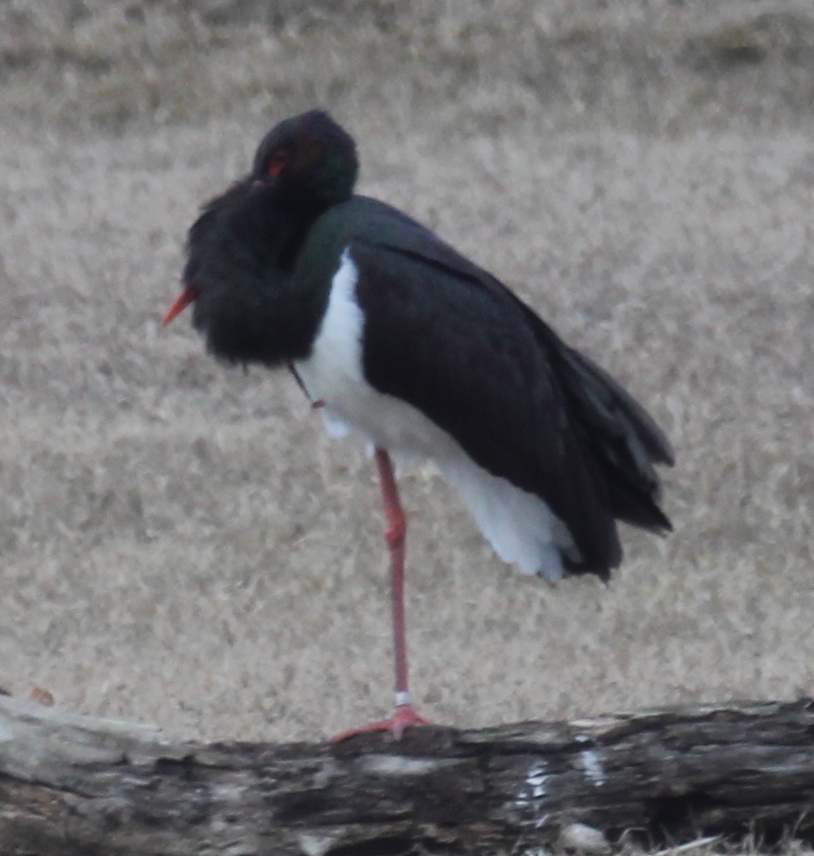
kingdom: Animalia
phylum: Chordata
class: Aves
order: Ciconiiformes
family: Ciconiidae
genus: Ciconia
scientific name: Ciconia nigra
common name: Black stork
